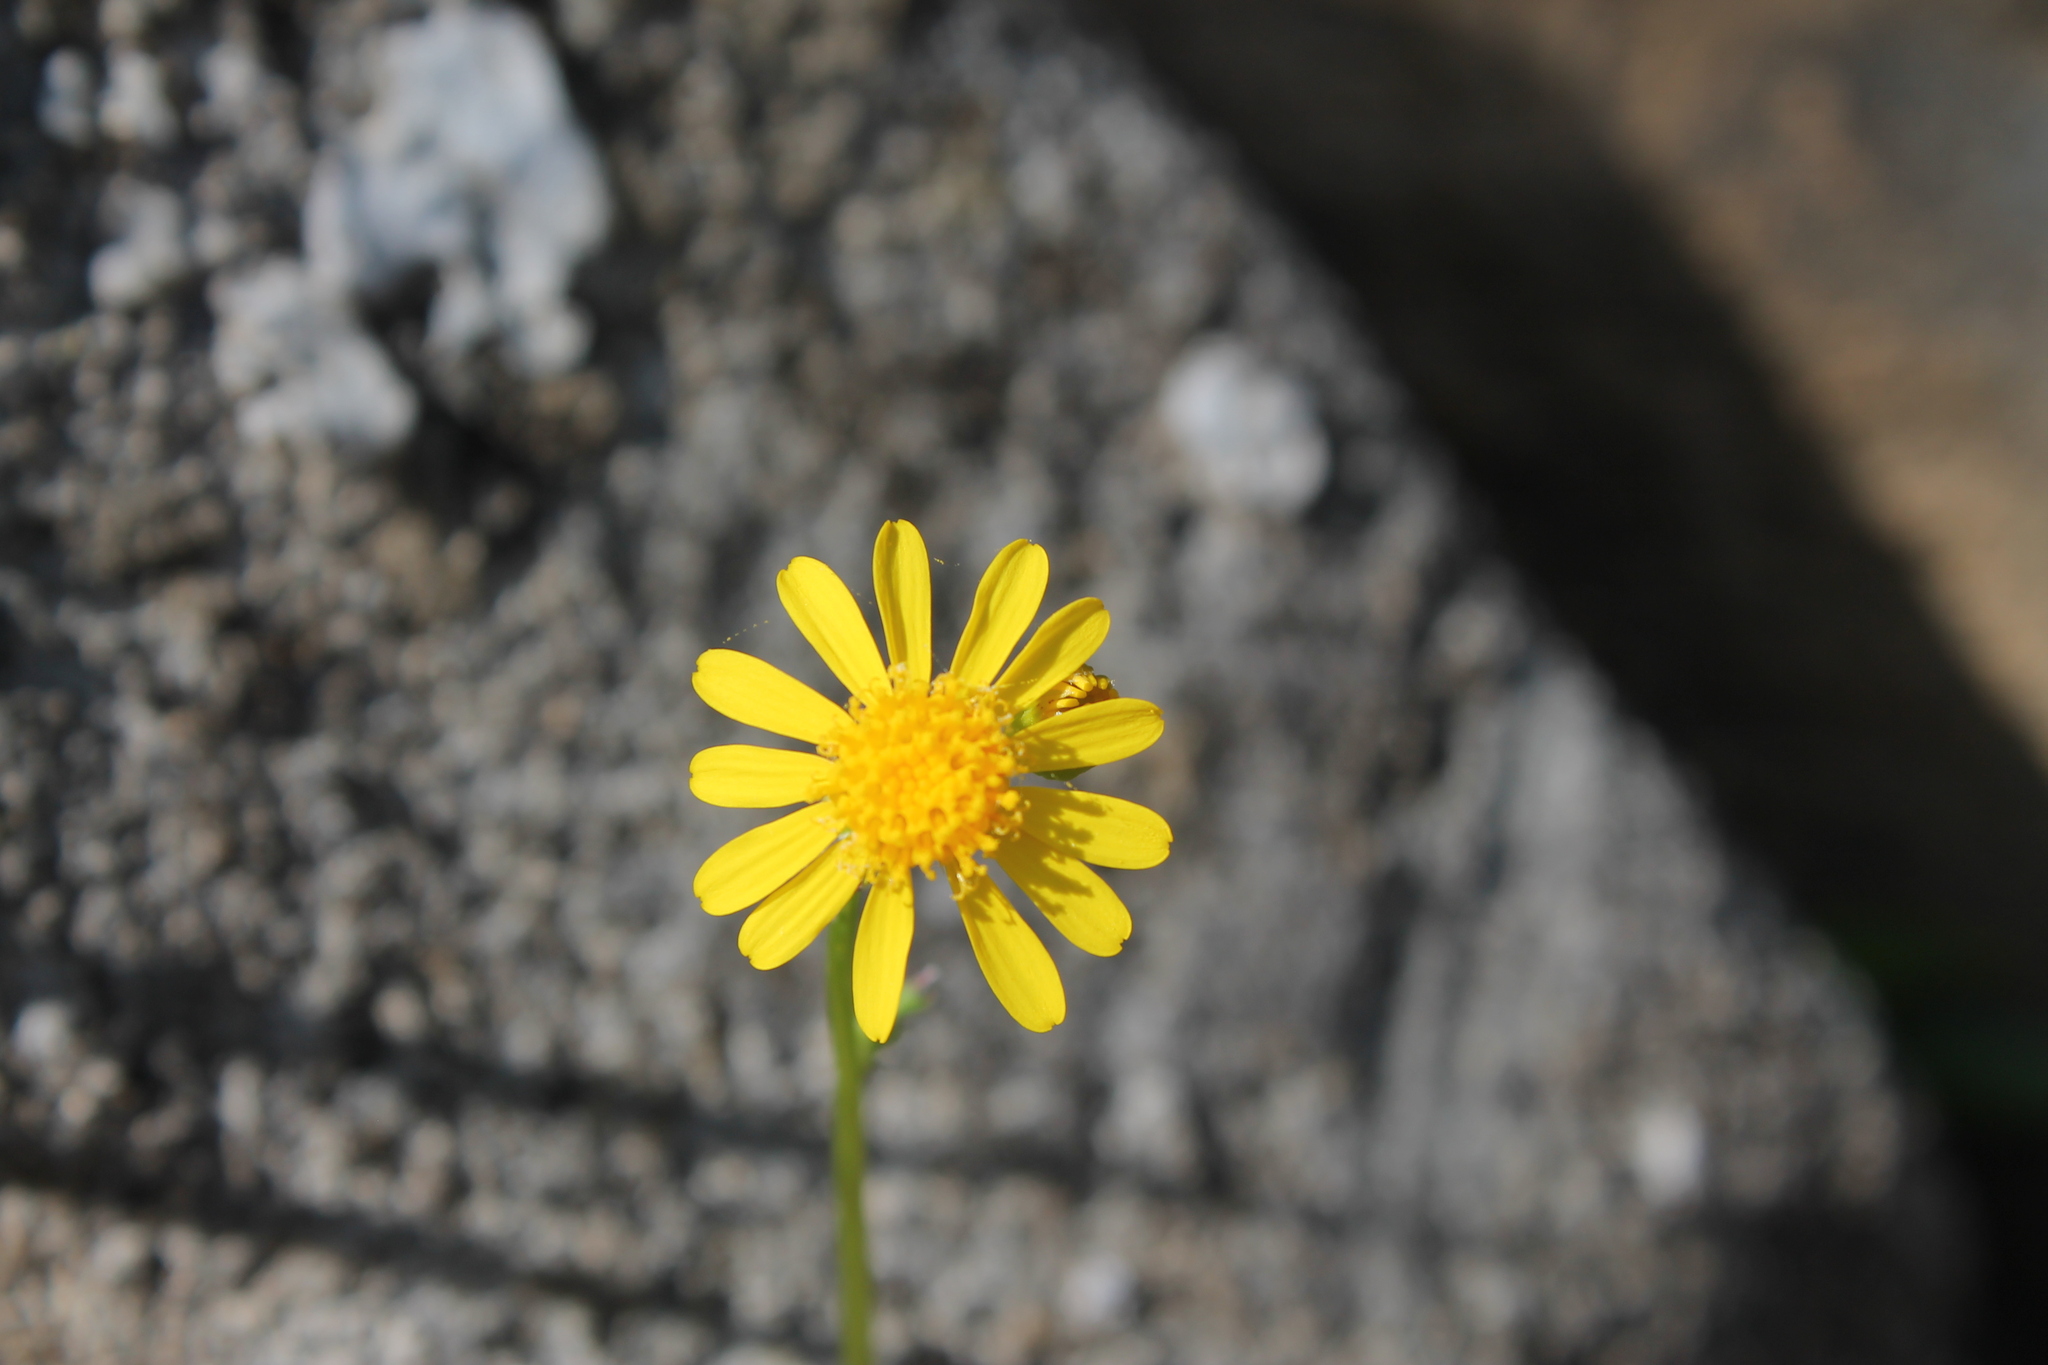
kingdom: Plantae
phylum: Tracheophyta
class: Magnoliopsida
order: Asterales
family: Asteraceae
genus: Packera
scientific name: Packera glabella
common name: Butterweed
